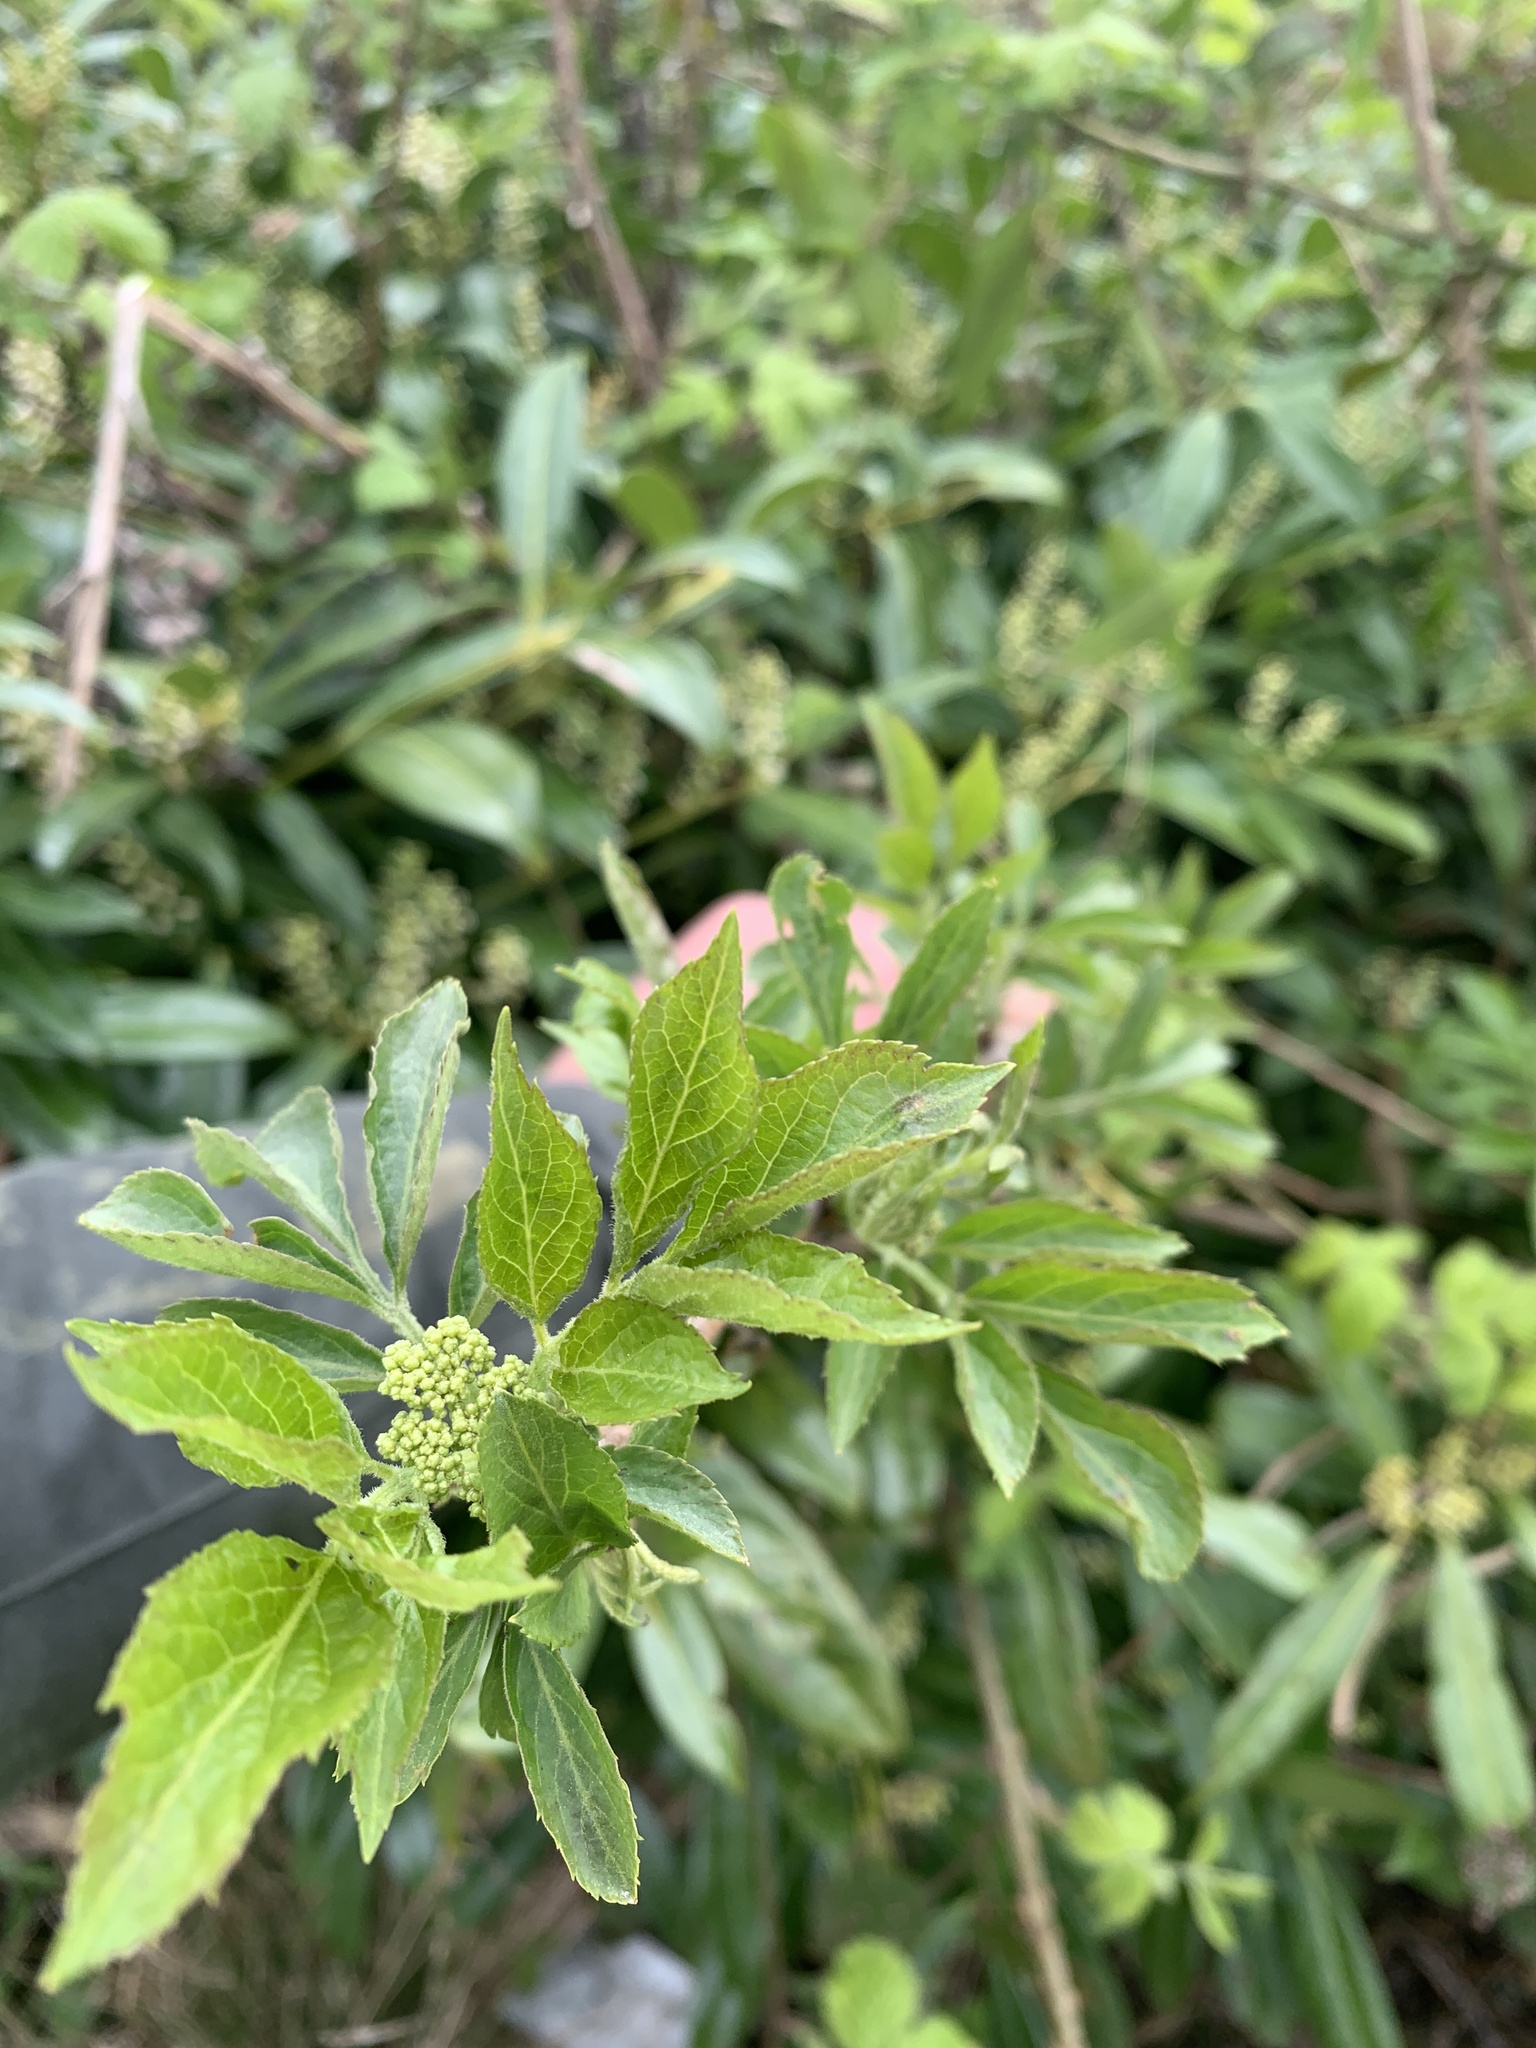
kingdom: Plantae
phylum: Tracheophyta
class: Magnoliopsida
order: Dipsacales
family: Viburnaceae
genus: Sambucus
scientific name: Sambucus nigra
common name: Elder
